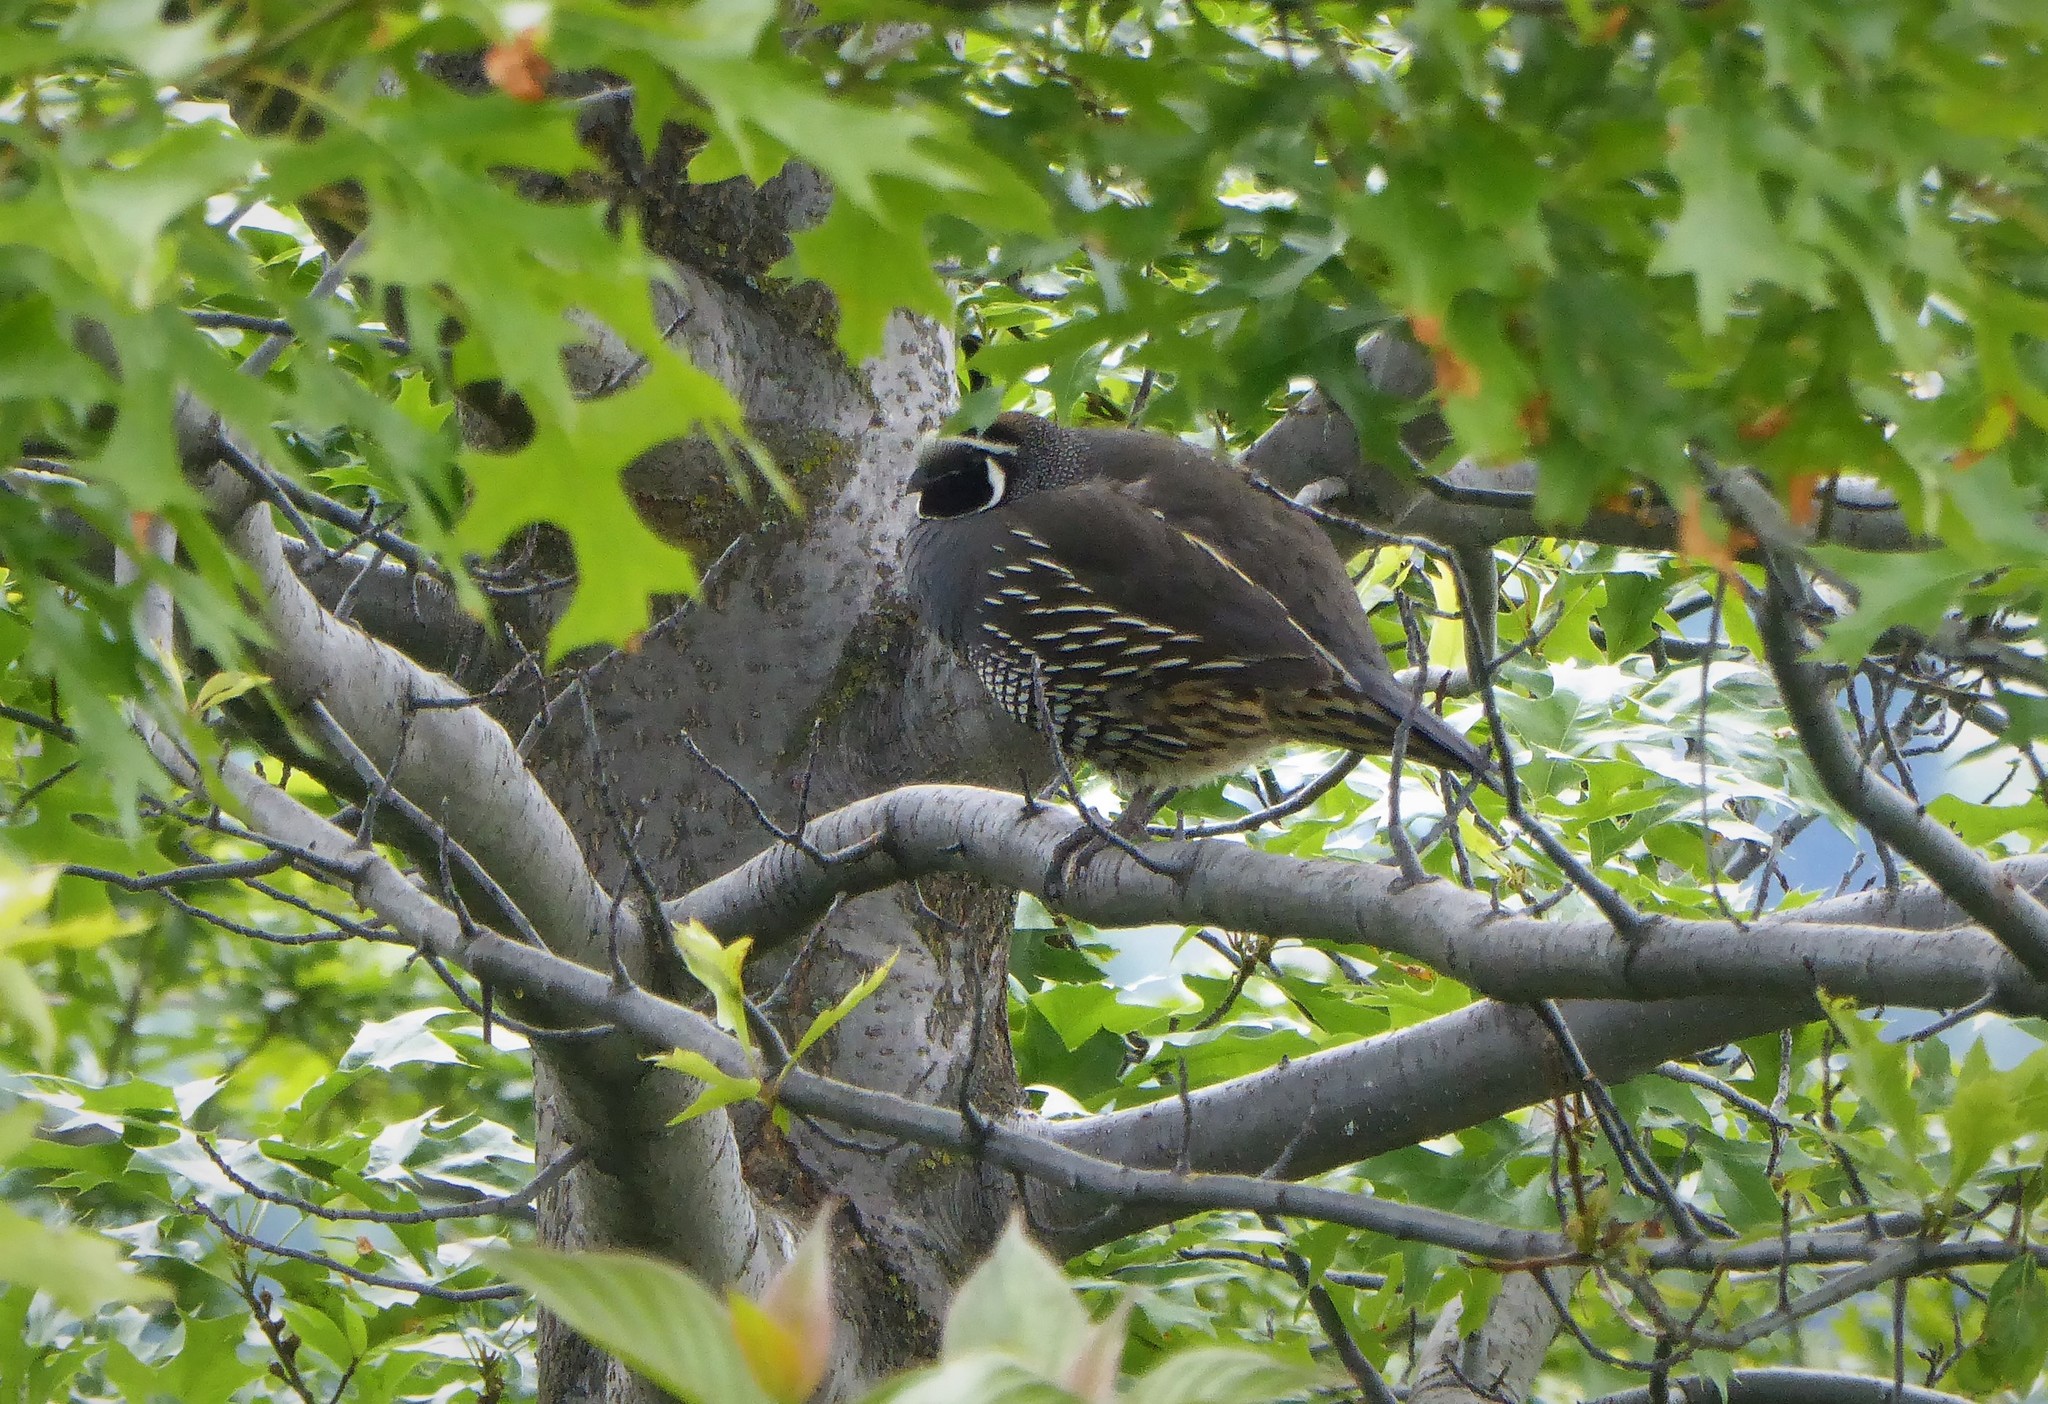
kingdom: Animalia
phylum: Chordata
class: Aves
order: Galliformes
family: Odontophoridae
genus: Callipepla
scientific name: Callipepla californica
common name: California quail
